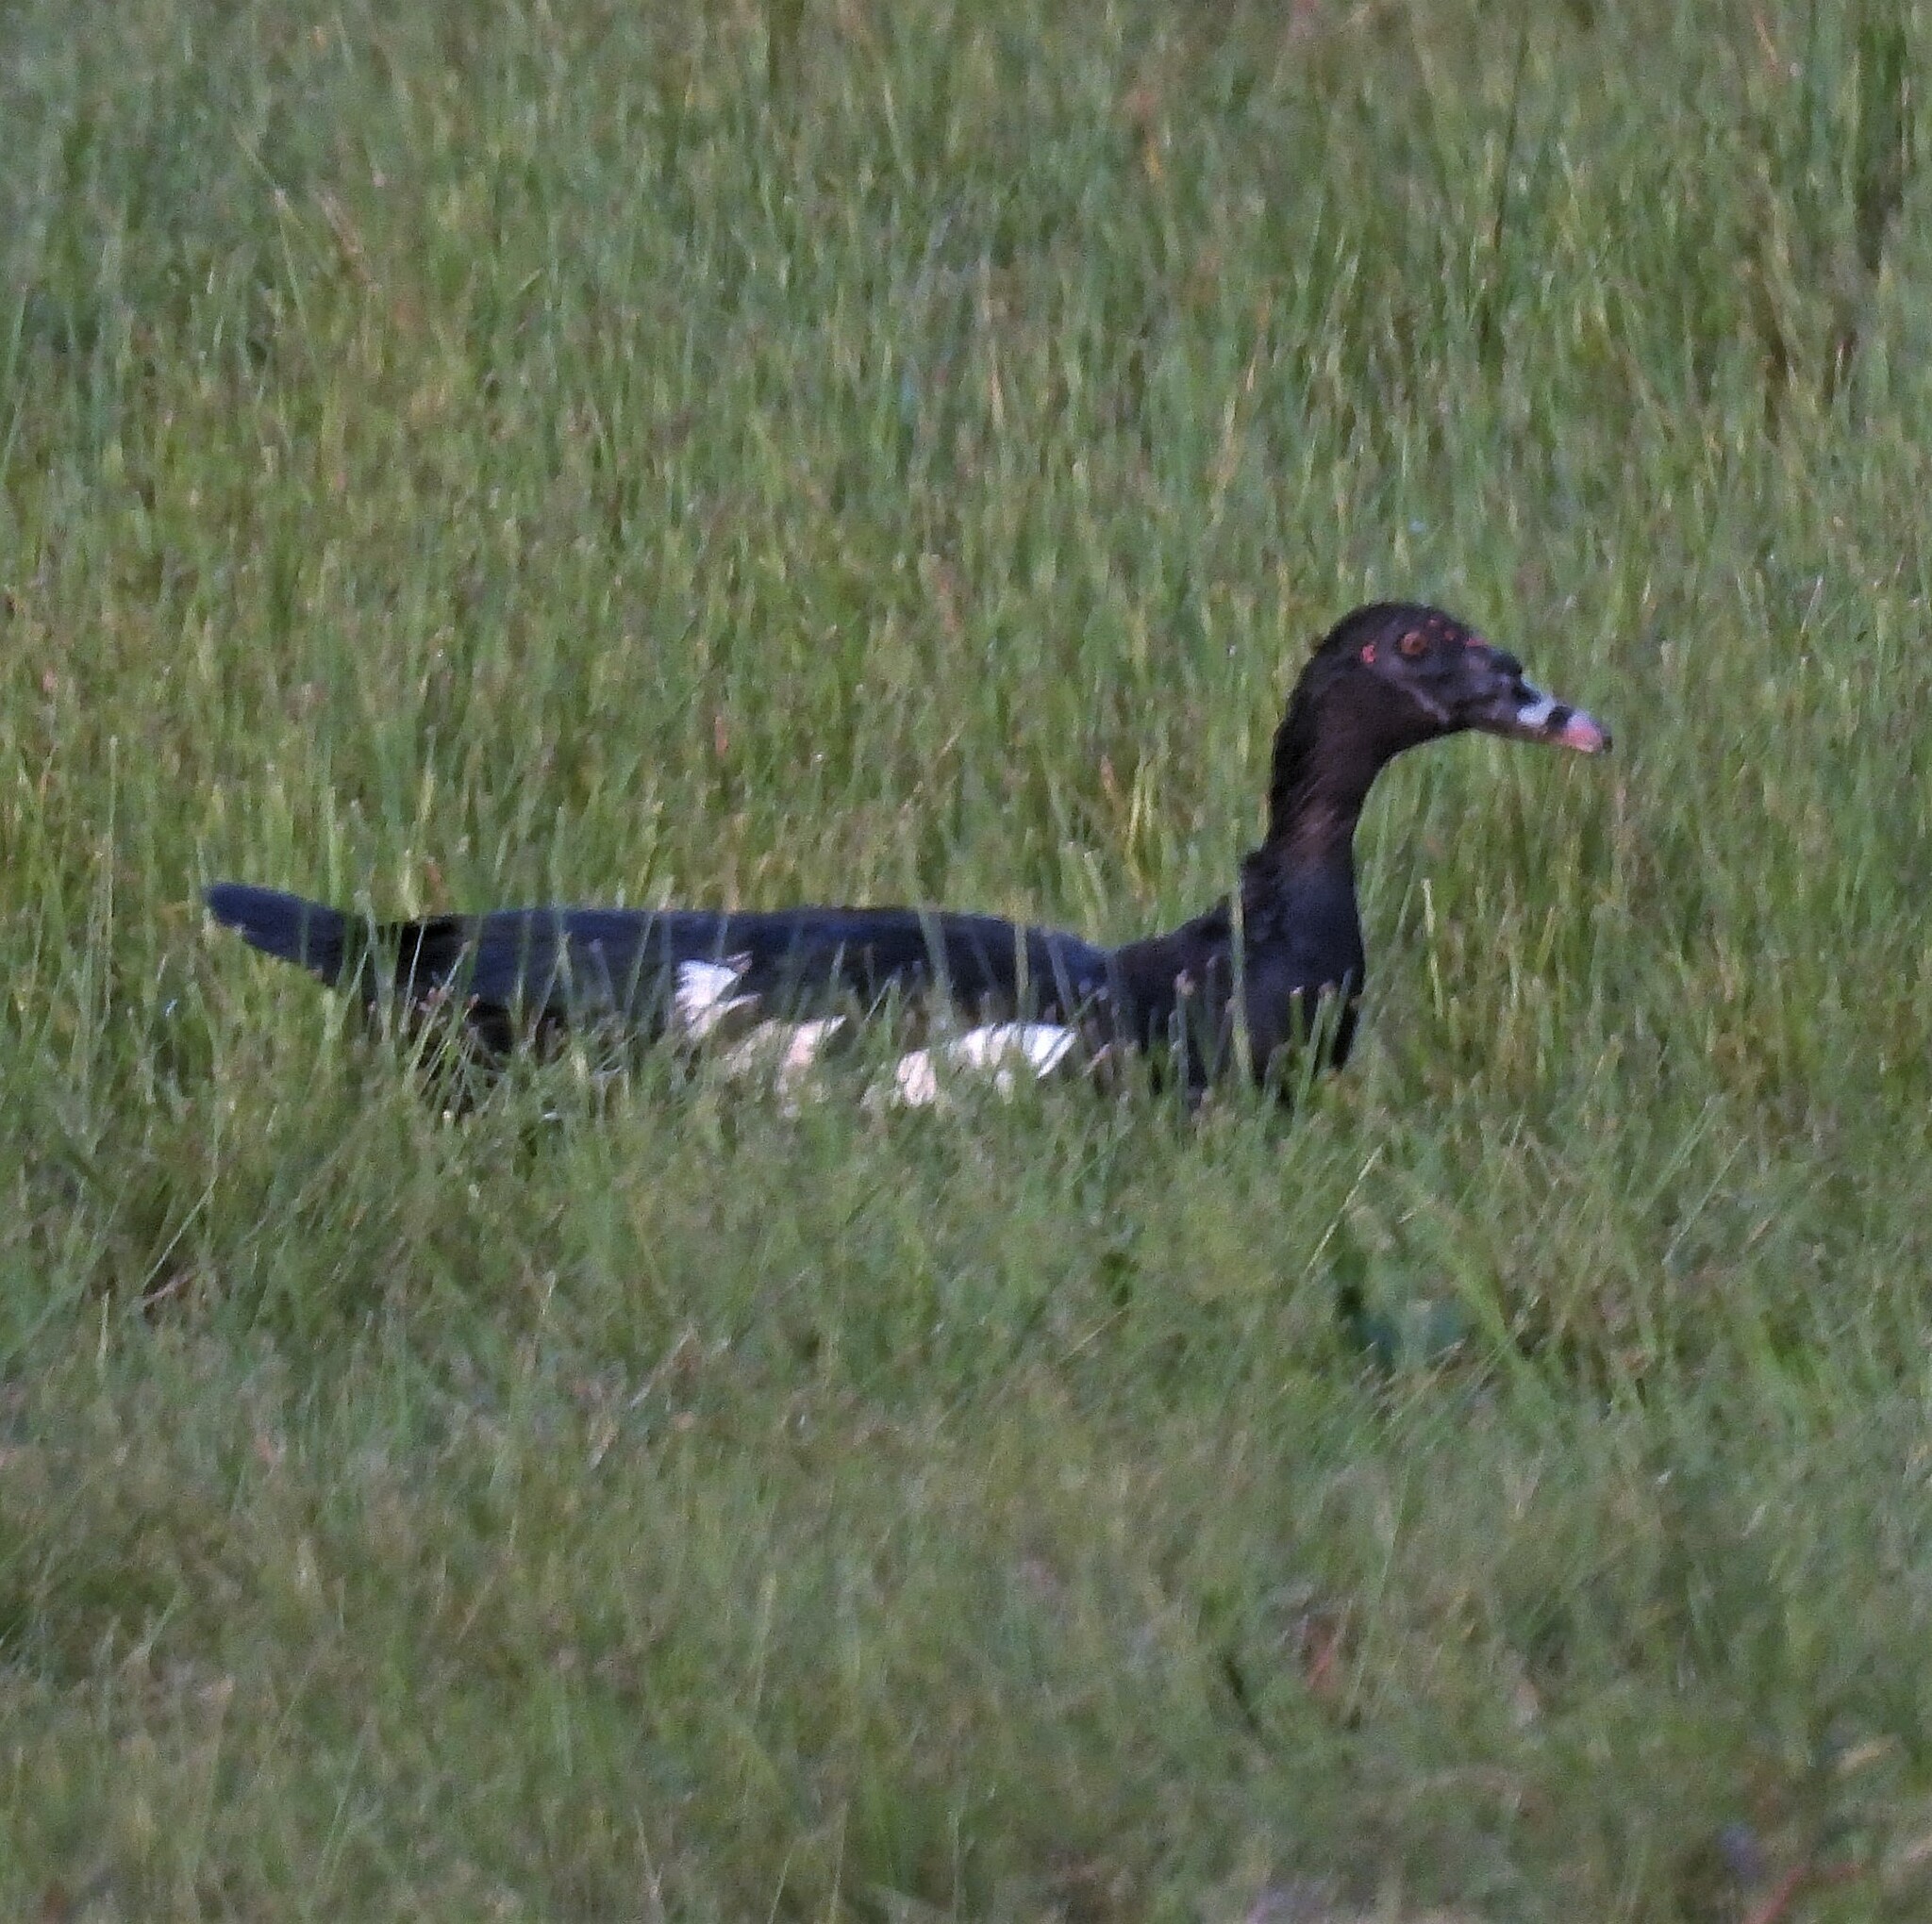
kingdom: Animalia
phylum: Chordata
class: Aves
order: Anseriformes
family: Anatidae
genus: Cairina
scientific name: Cairina moschata
